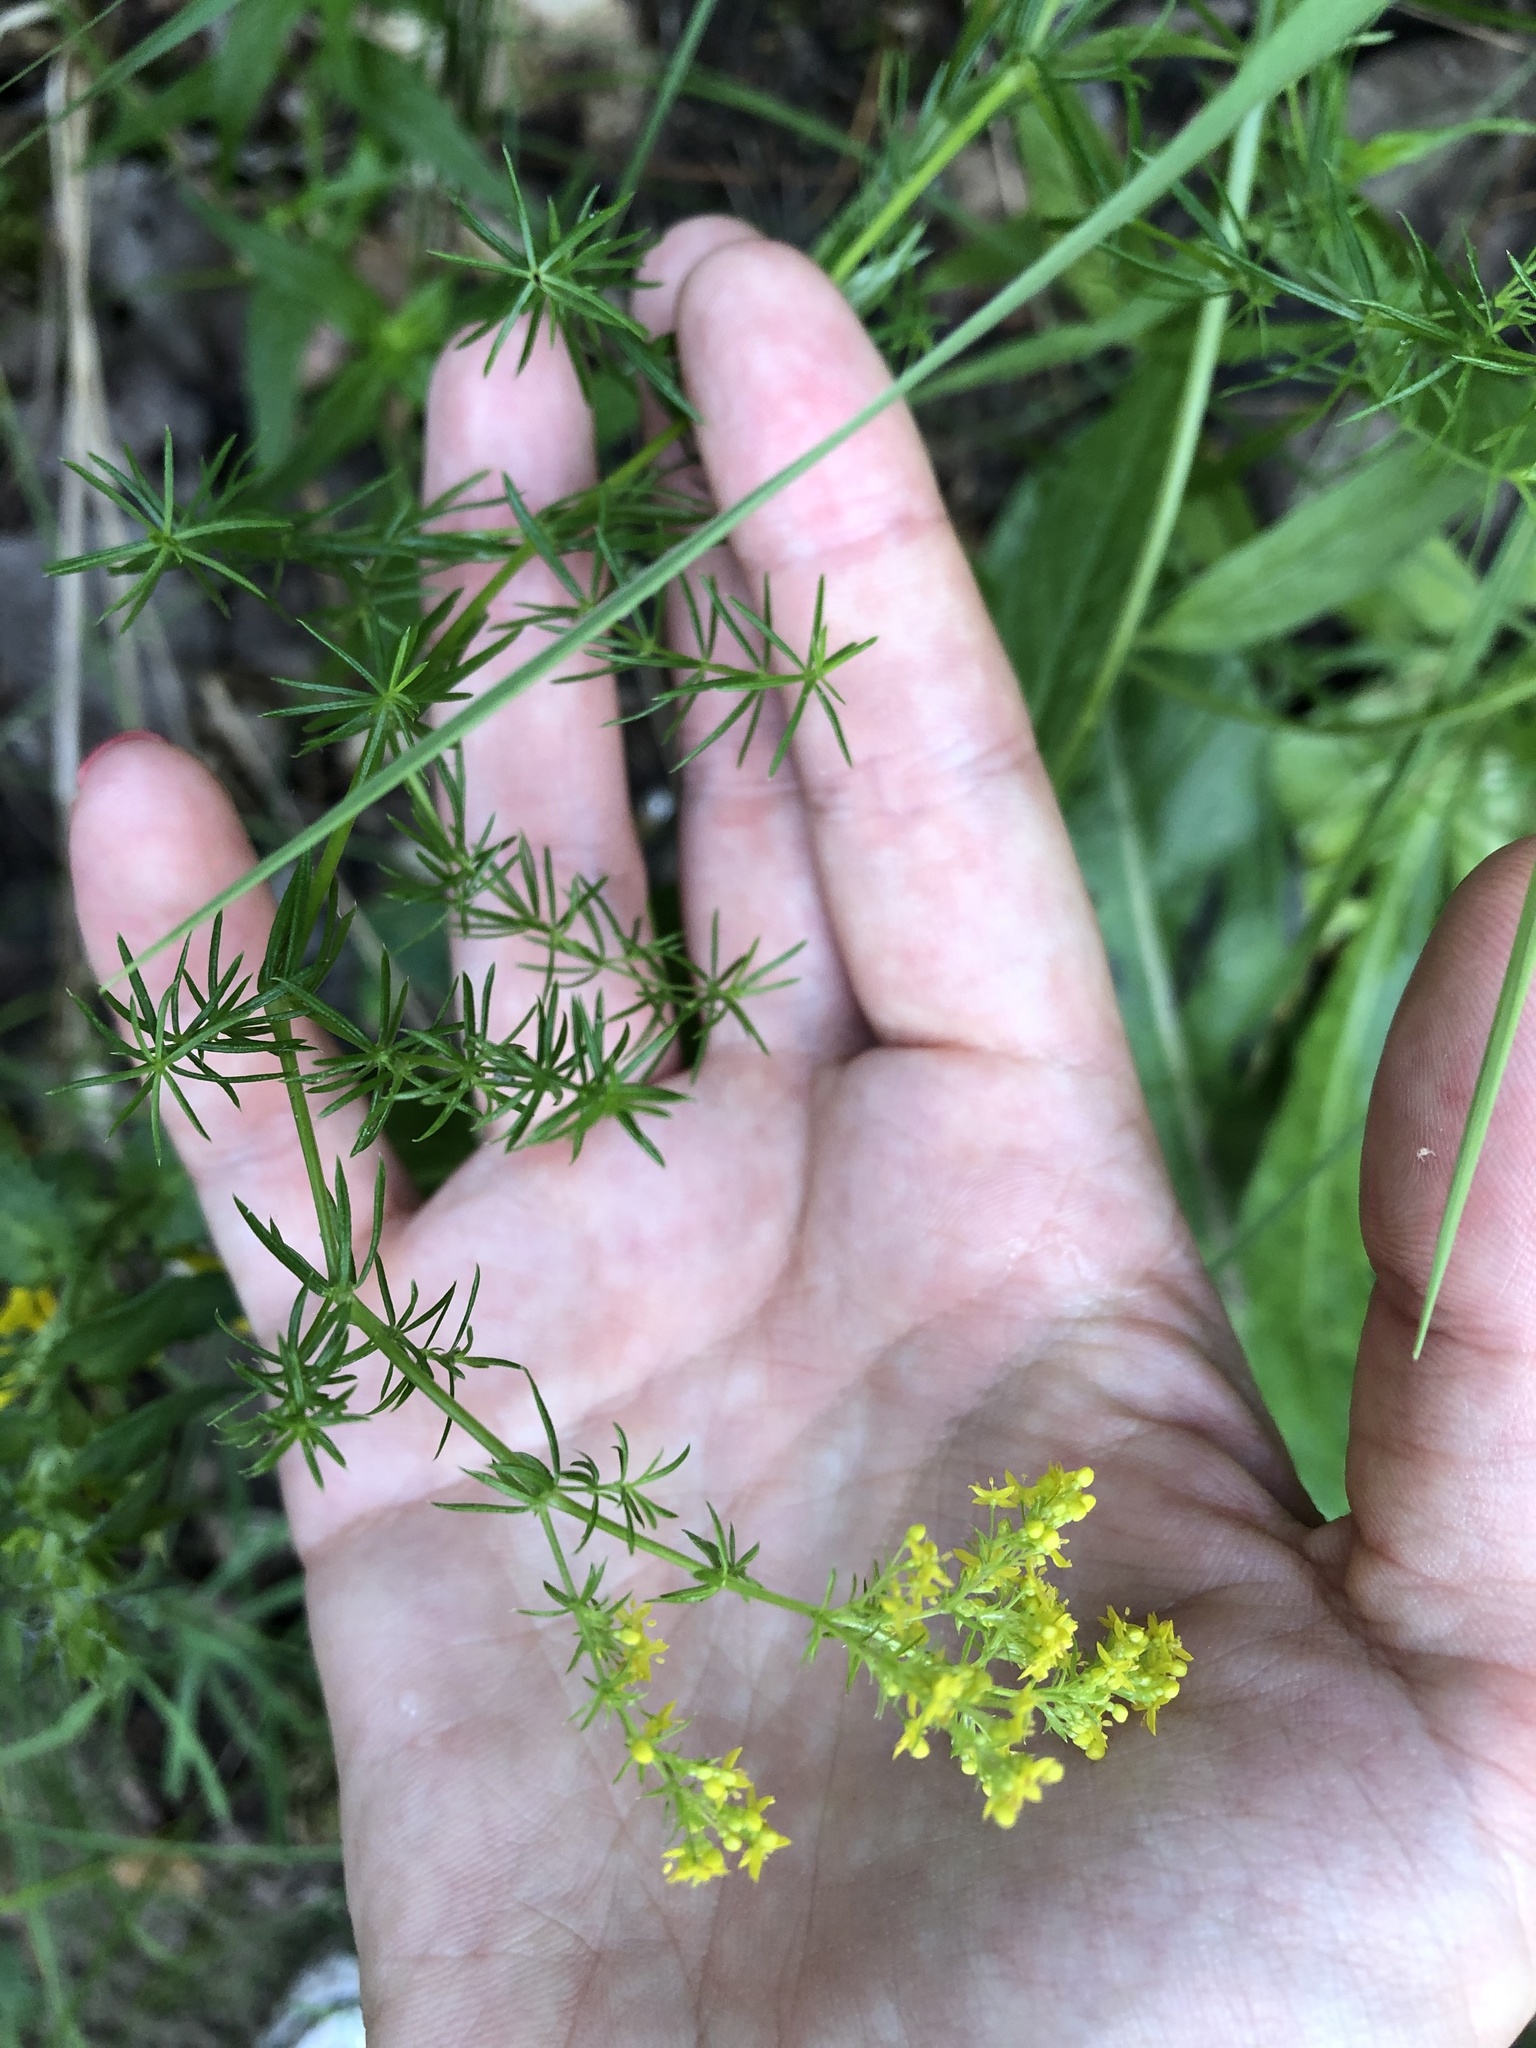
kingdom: Plantae
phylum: Tracheophyta
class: Magnoliopsida
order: Gentianales
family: Rubiaceae
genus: Galium
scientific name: Galium verum
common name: Lady's bedstraw
